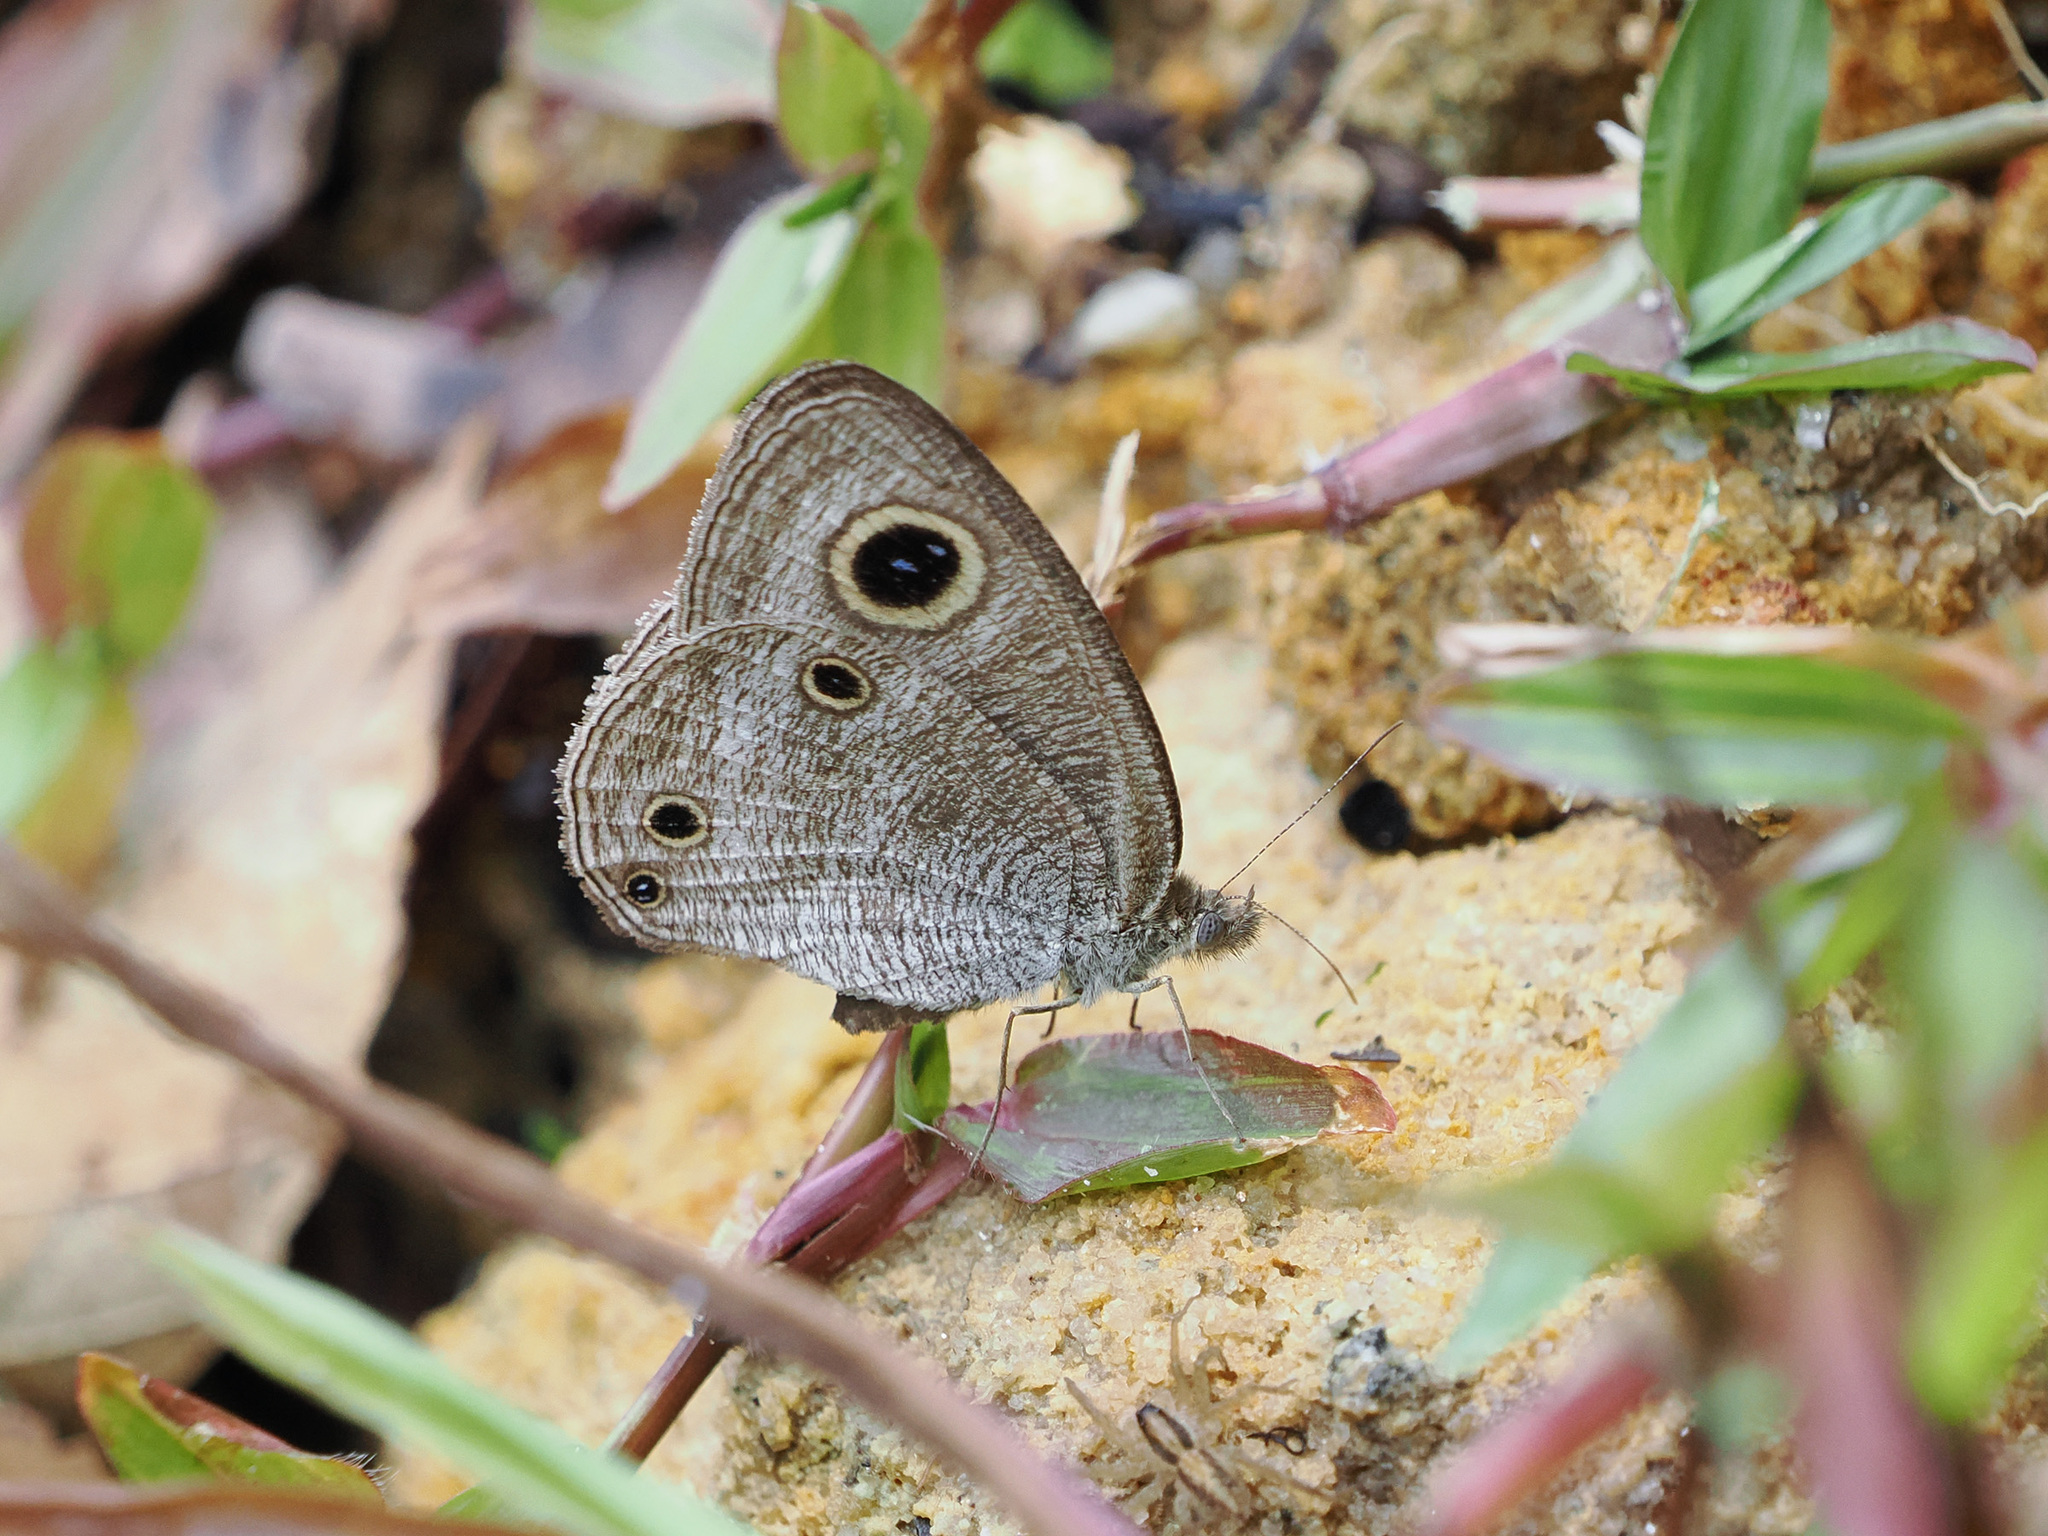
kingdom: Animalia
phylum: Arthropoda
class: Insecta
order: Lepidoptera
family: Nymphalidae
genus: Ypthima
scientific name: Ypthima pandocus
